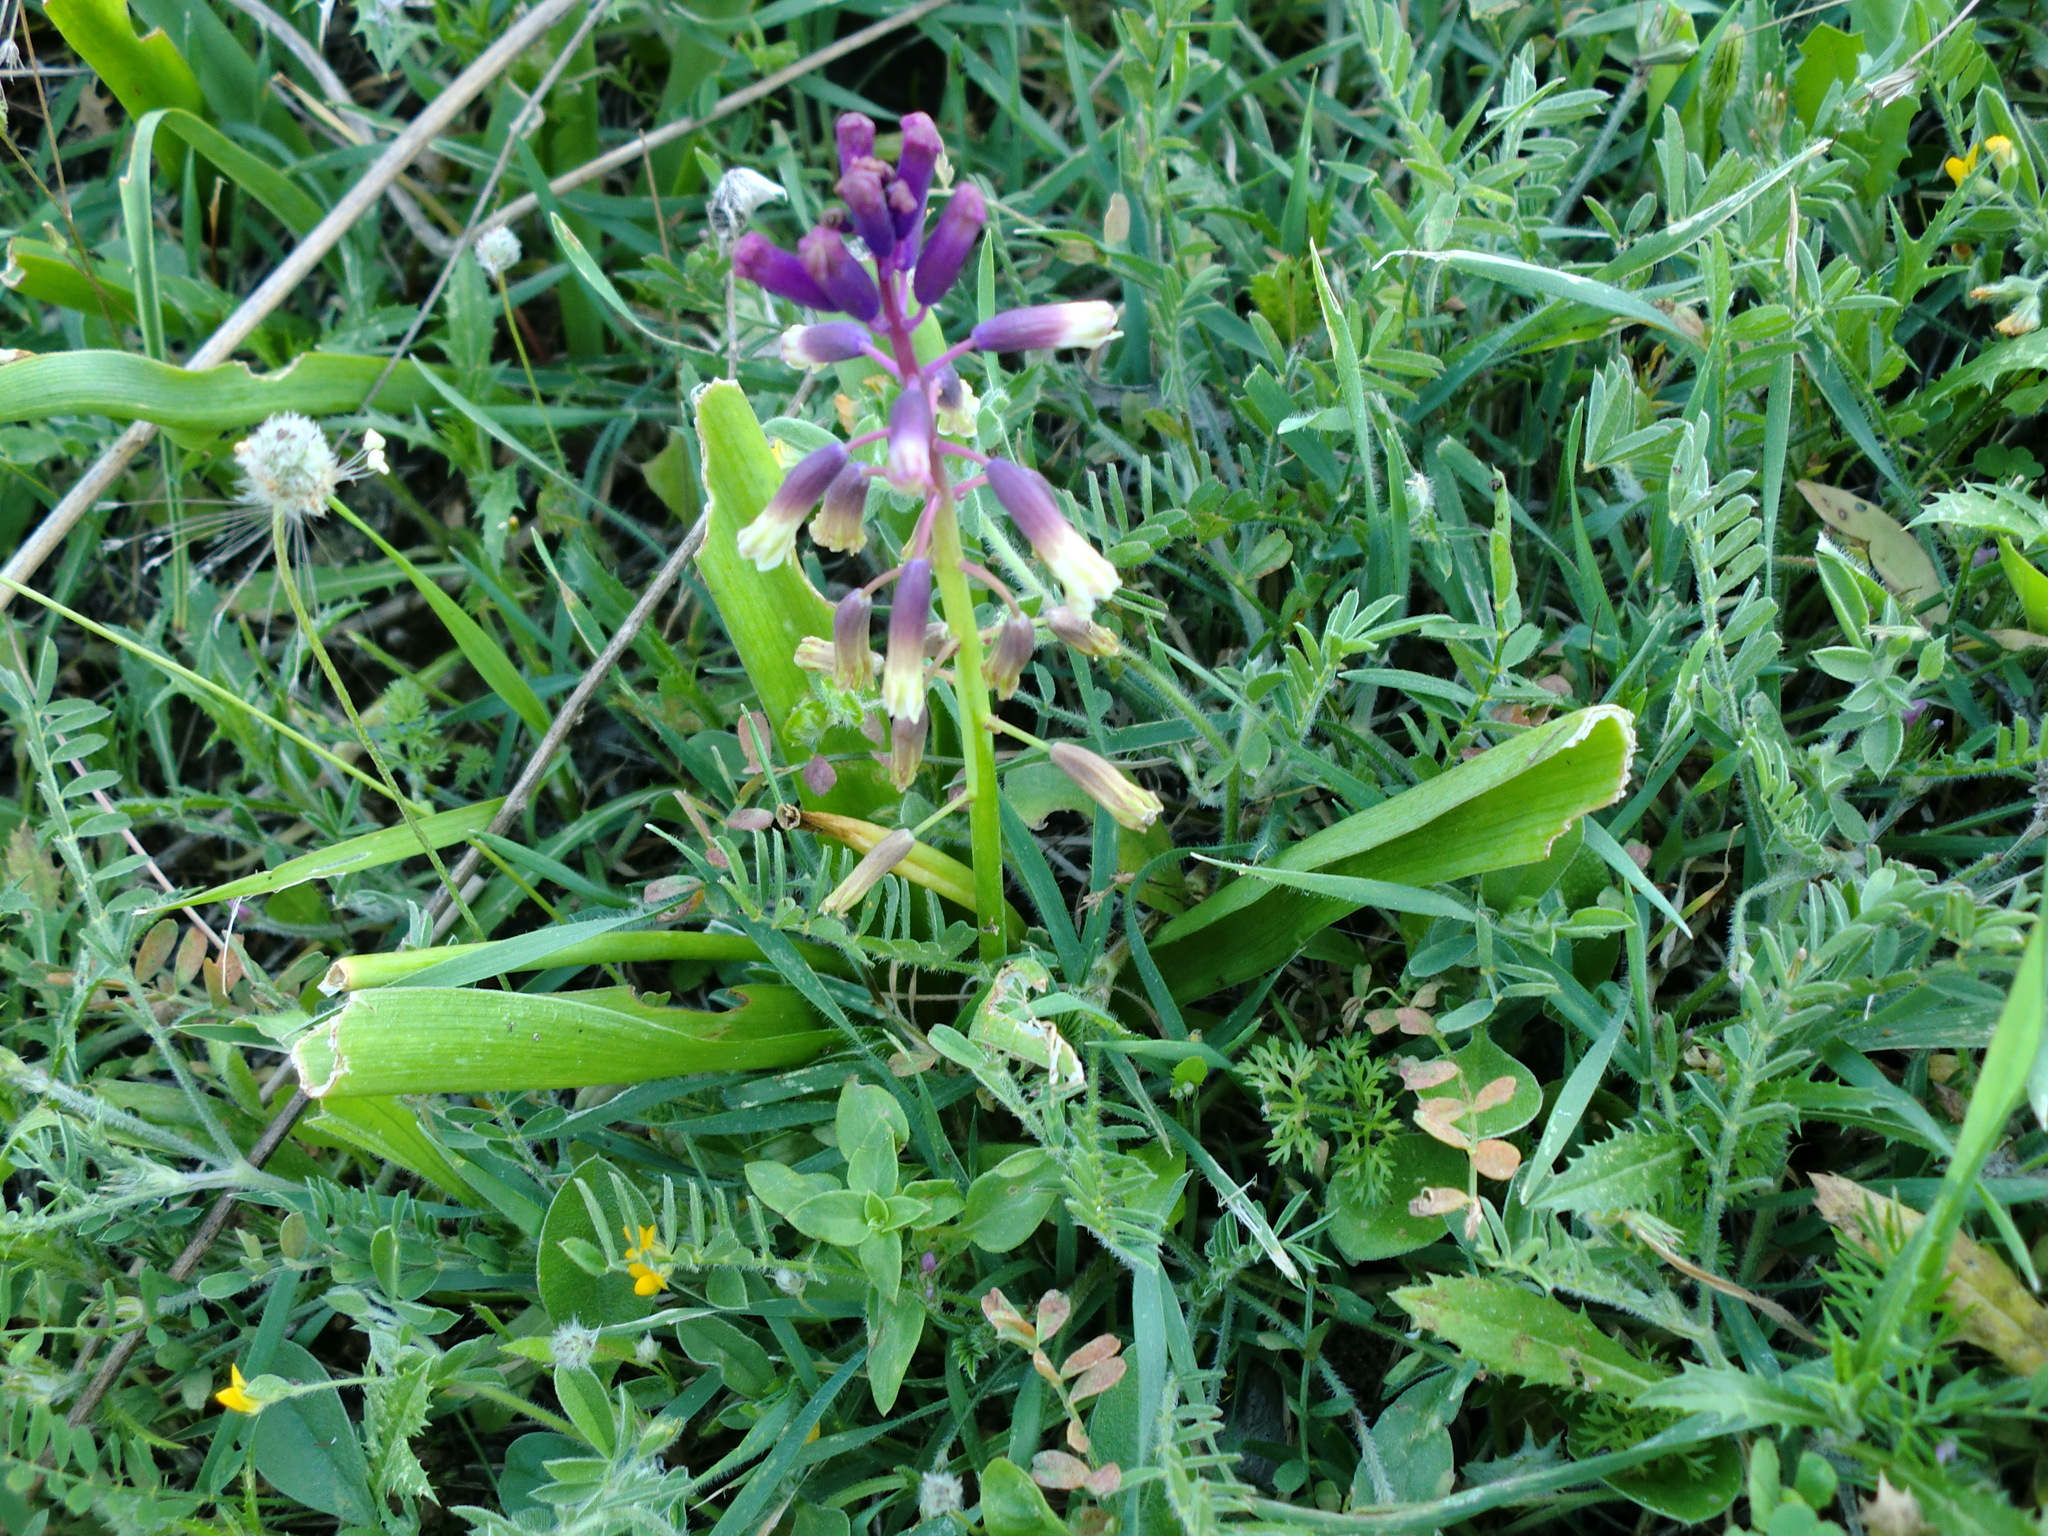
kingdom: Plantae
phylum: Tracheophyta
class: Liliopsida
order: Asparagales
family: Asparagaceae
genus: Bellevalia
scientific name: Bellevalia trifoliata
